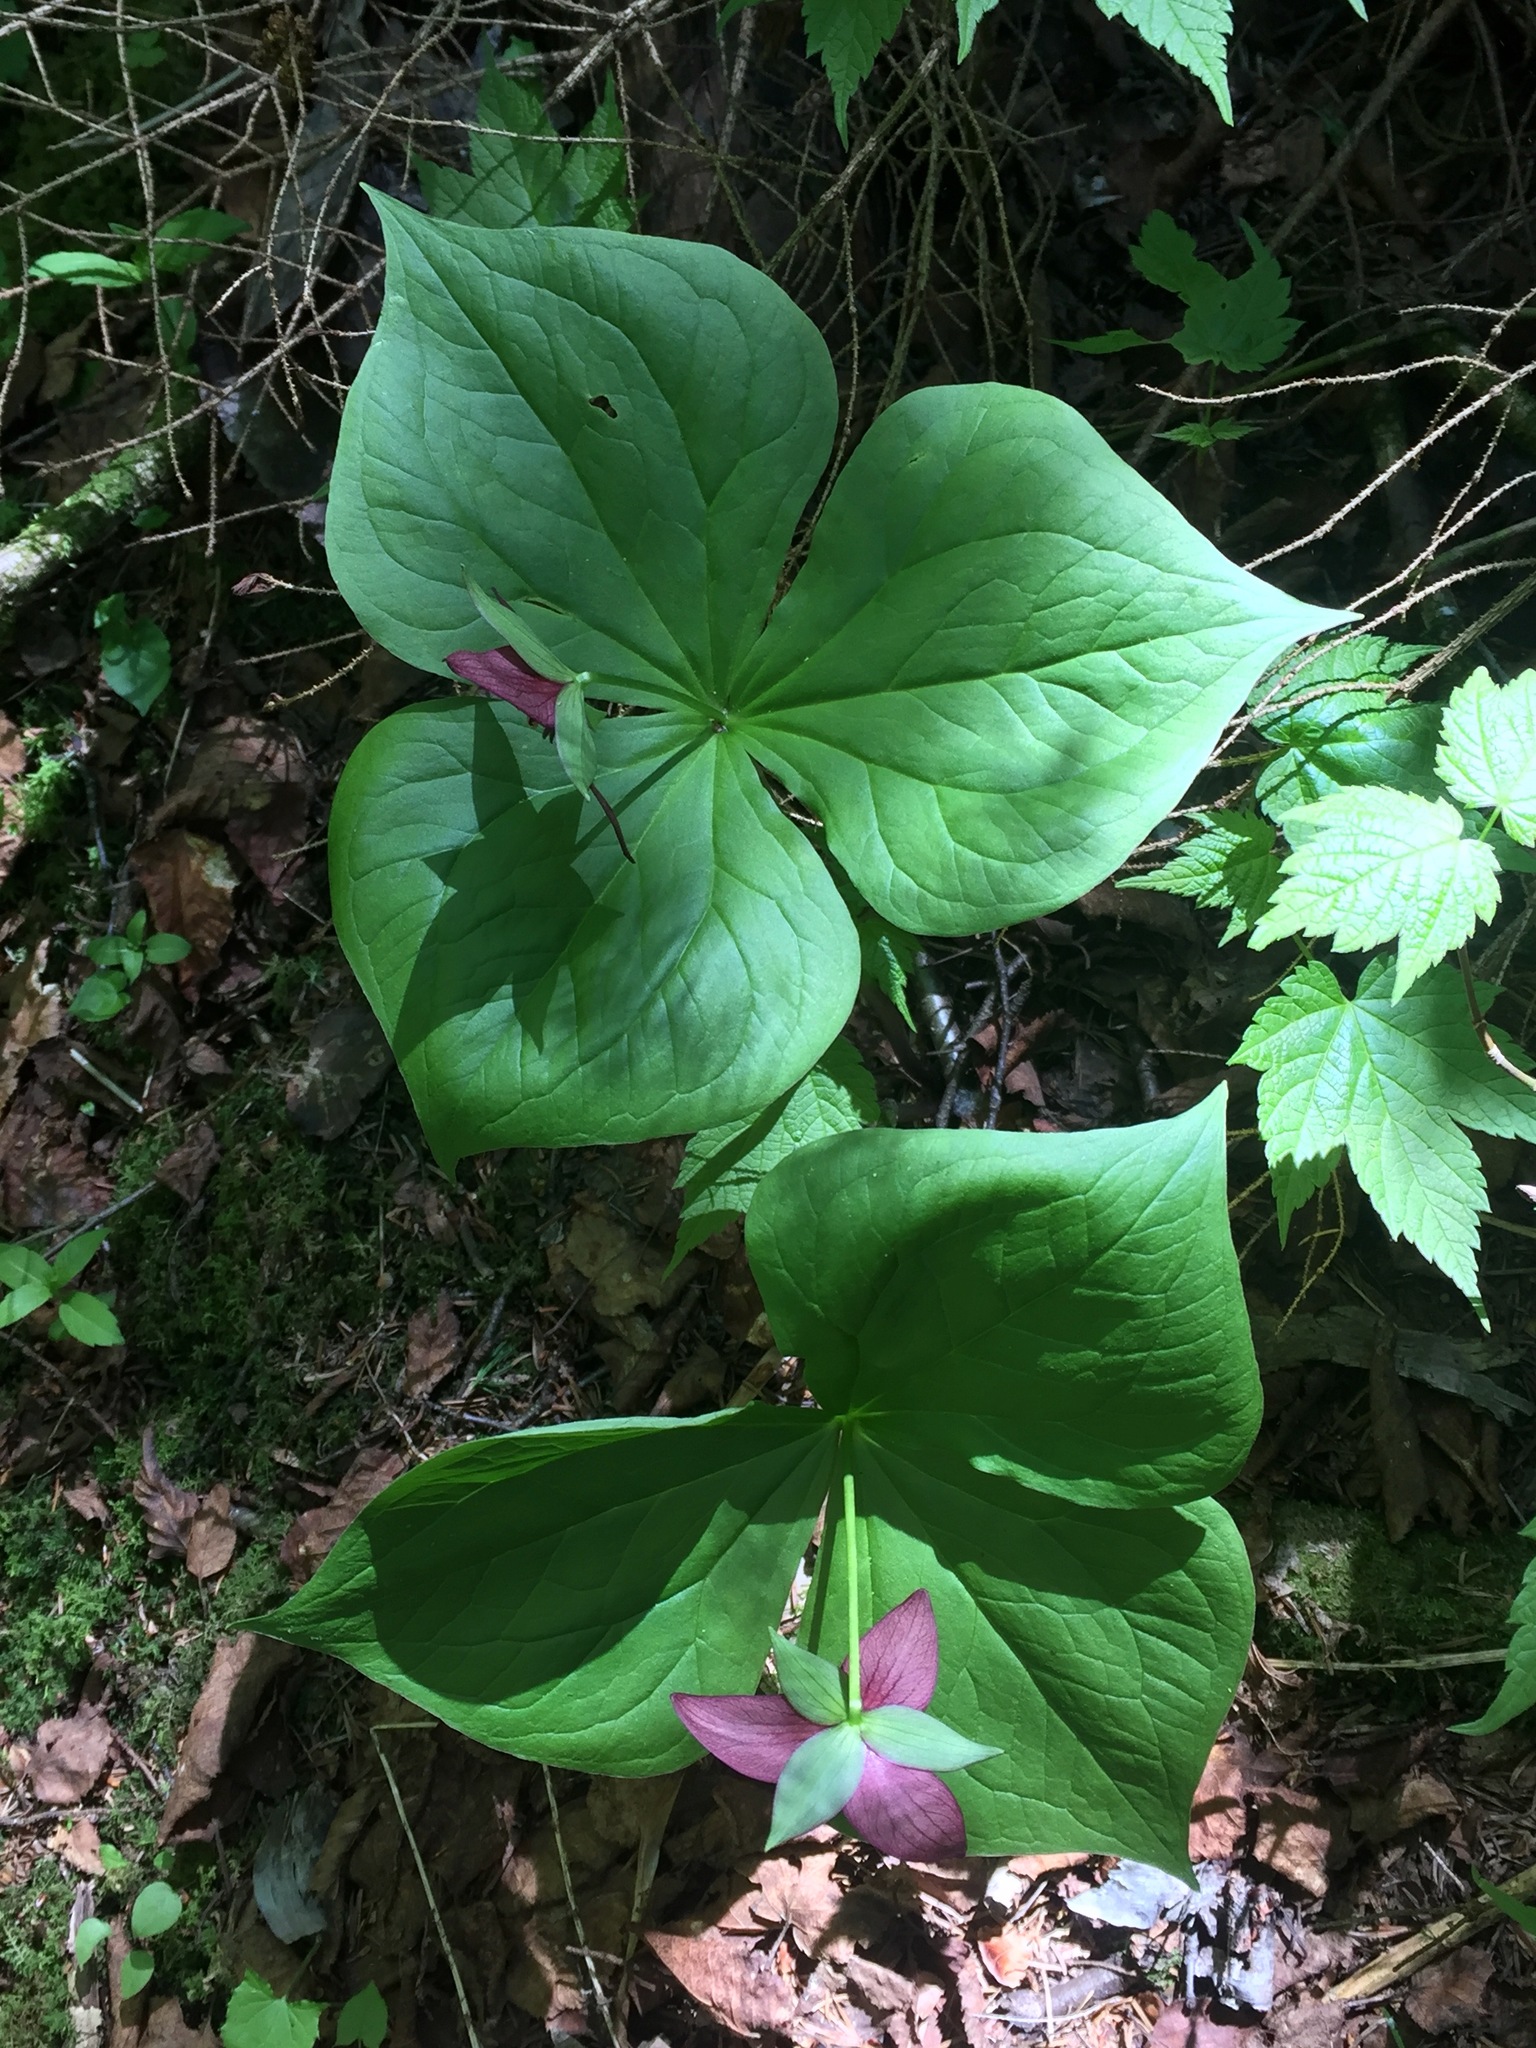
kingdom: Plantae
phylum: Tracheophyta
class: Liliopsida
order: Liliales
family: Melanthiaceae
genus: Trillium
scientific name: Trillium erectum
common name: Purple trillium
